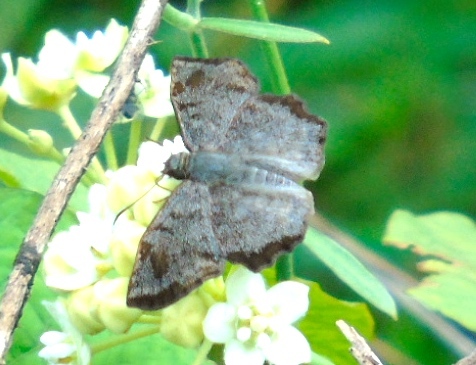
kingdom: Animalia
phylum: Arthropoda
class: Insecta
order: Lepidoptera
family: Hesperiidae
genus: Antigonus
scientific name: Antigonus erosus
